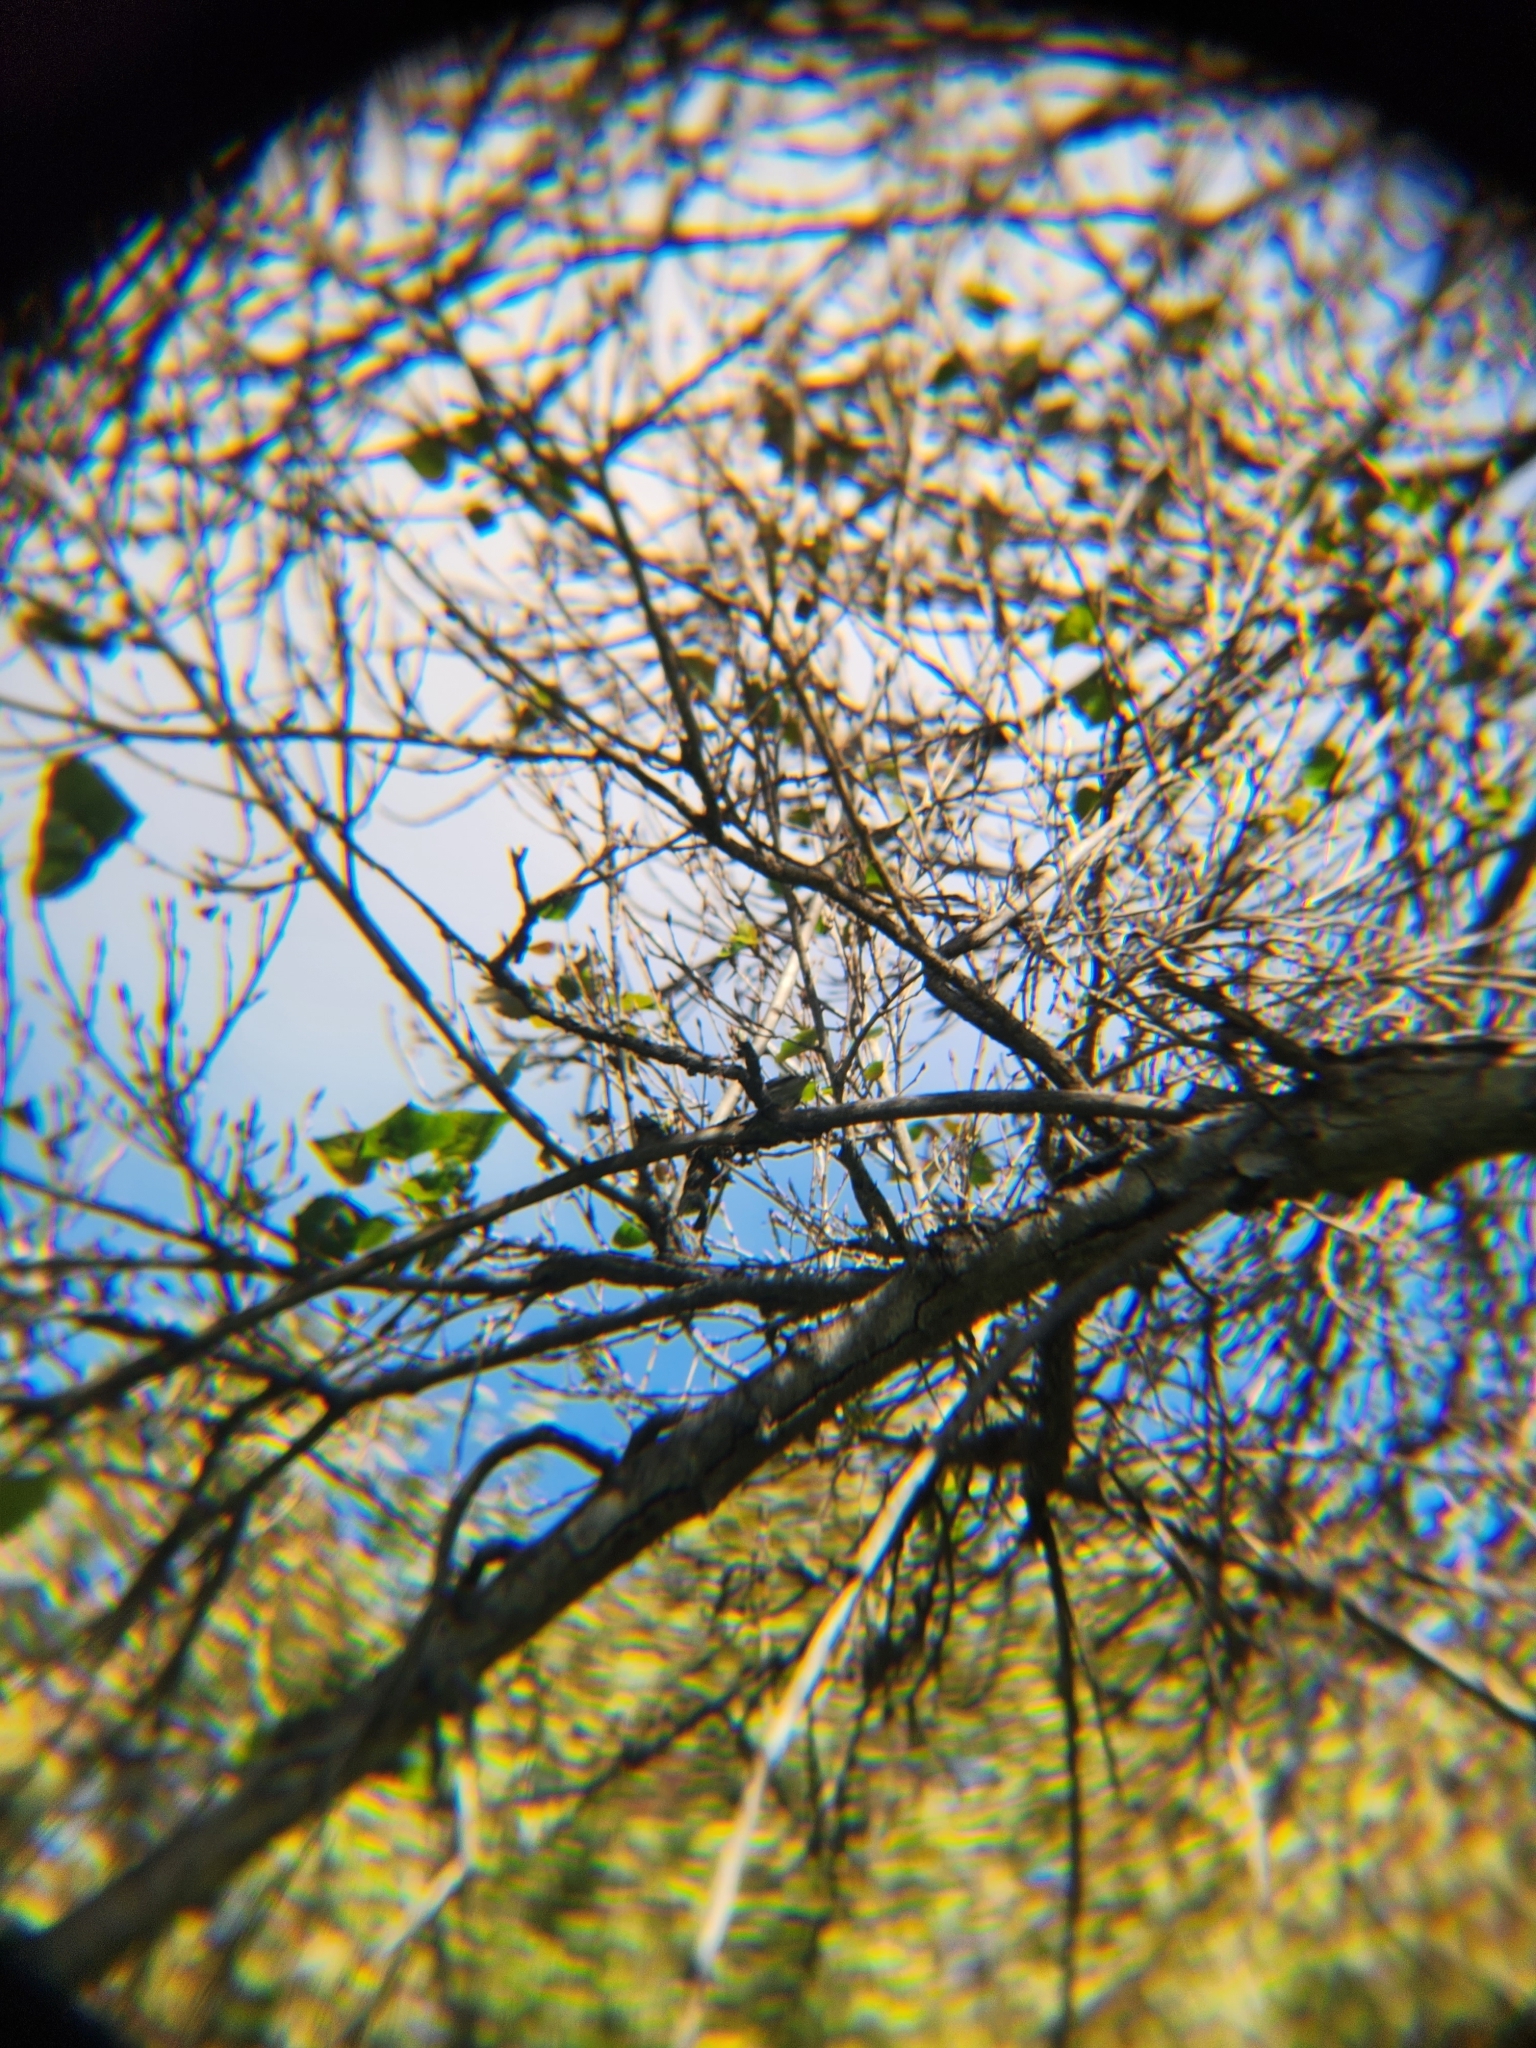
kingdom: Animalia
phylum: Chordata
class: Aves
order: Passeriformes
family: Parulidae
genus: Setophaga
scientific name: Setophaga coronata
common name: Myrtle warbler
